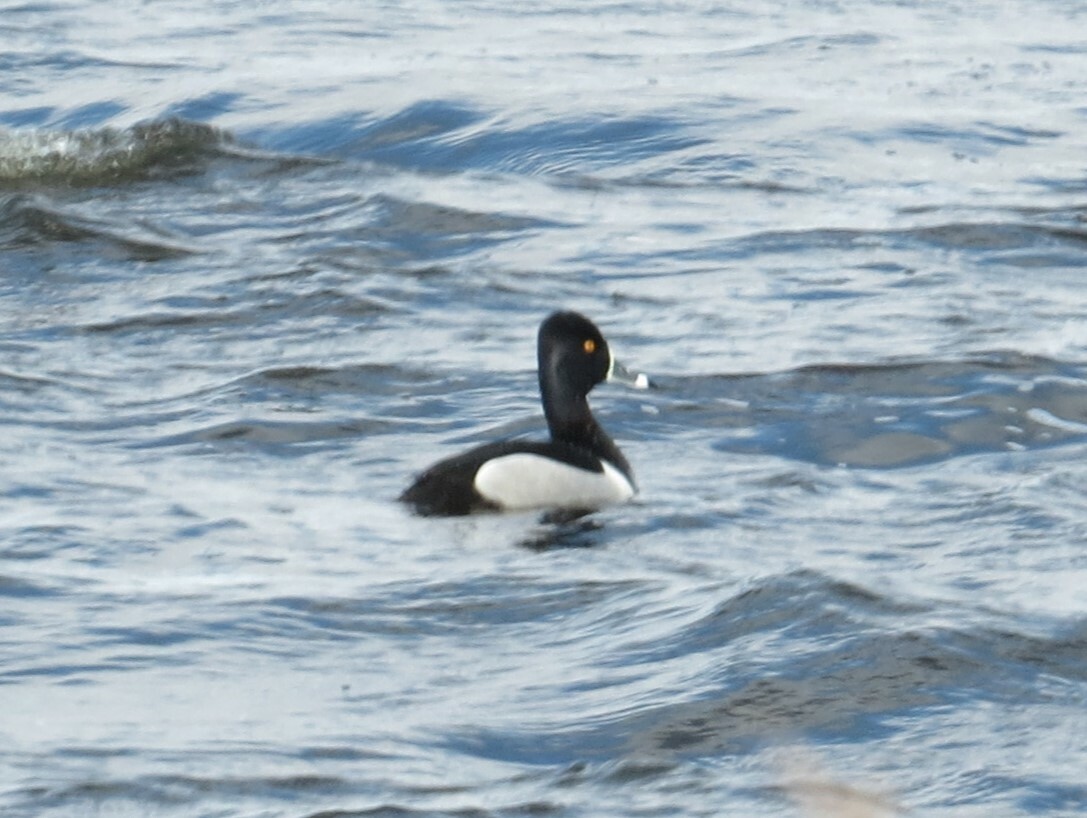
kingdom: Animalia
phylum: Chordata
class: Aves
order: Anseriformes
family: Anatidae
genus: Aythya
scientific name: Aythya collaris
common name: Ring-necked duck
